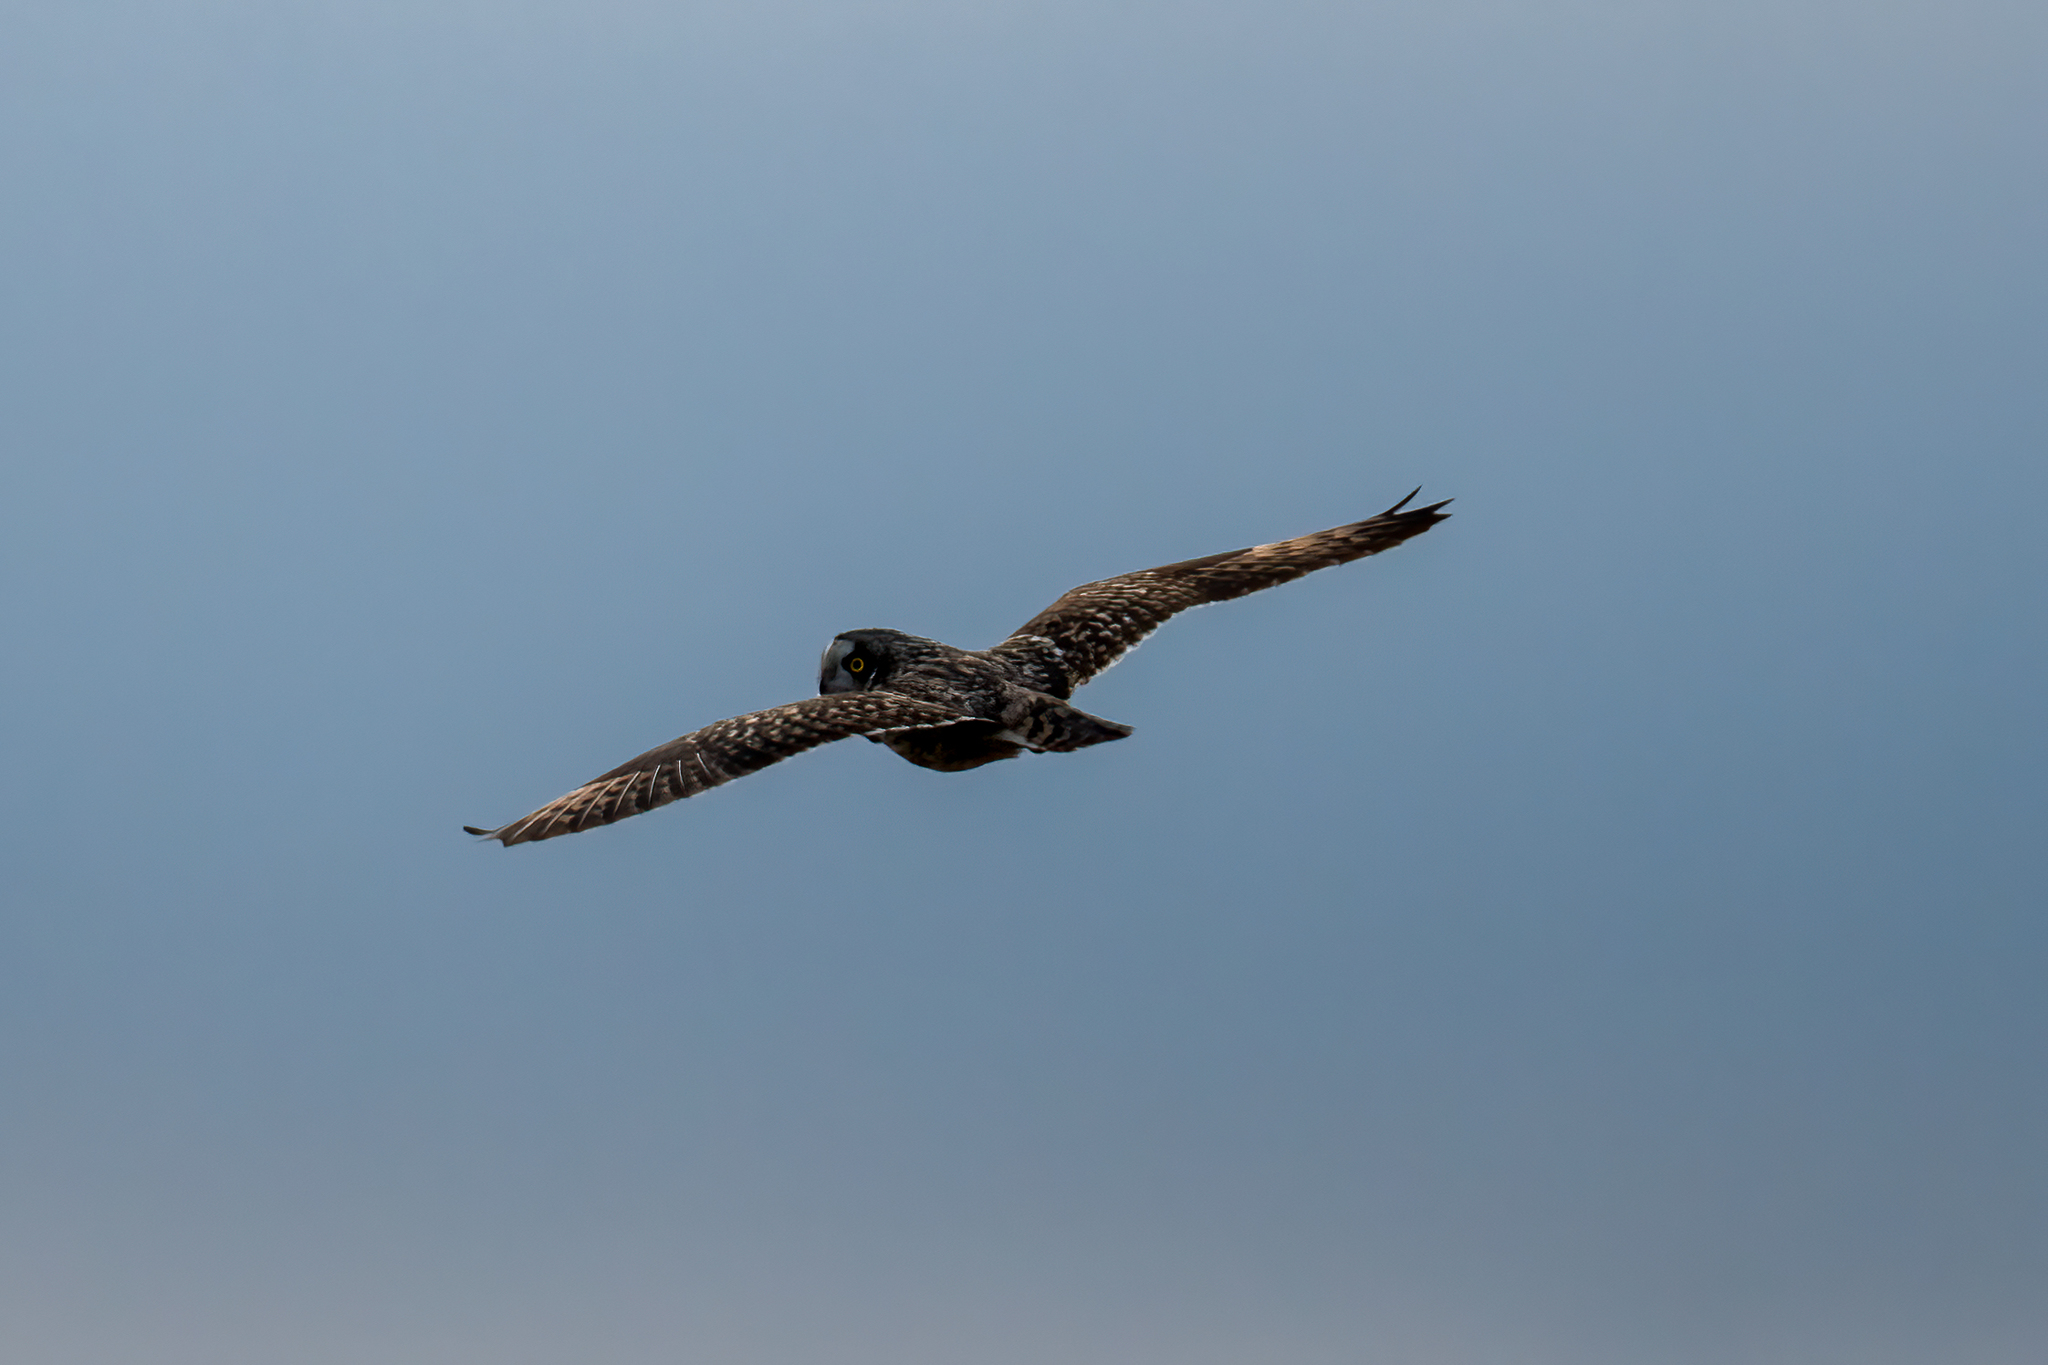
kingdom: Animalia
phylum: Chordata
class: Aves
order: Strigiformes
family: Strigidae
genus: Asio
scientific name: Asio flammeus
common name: Short-eared owl
